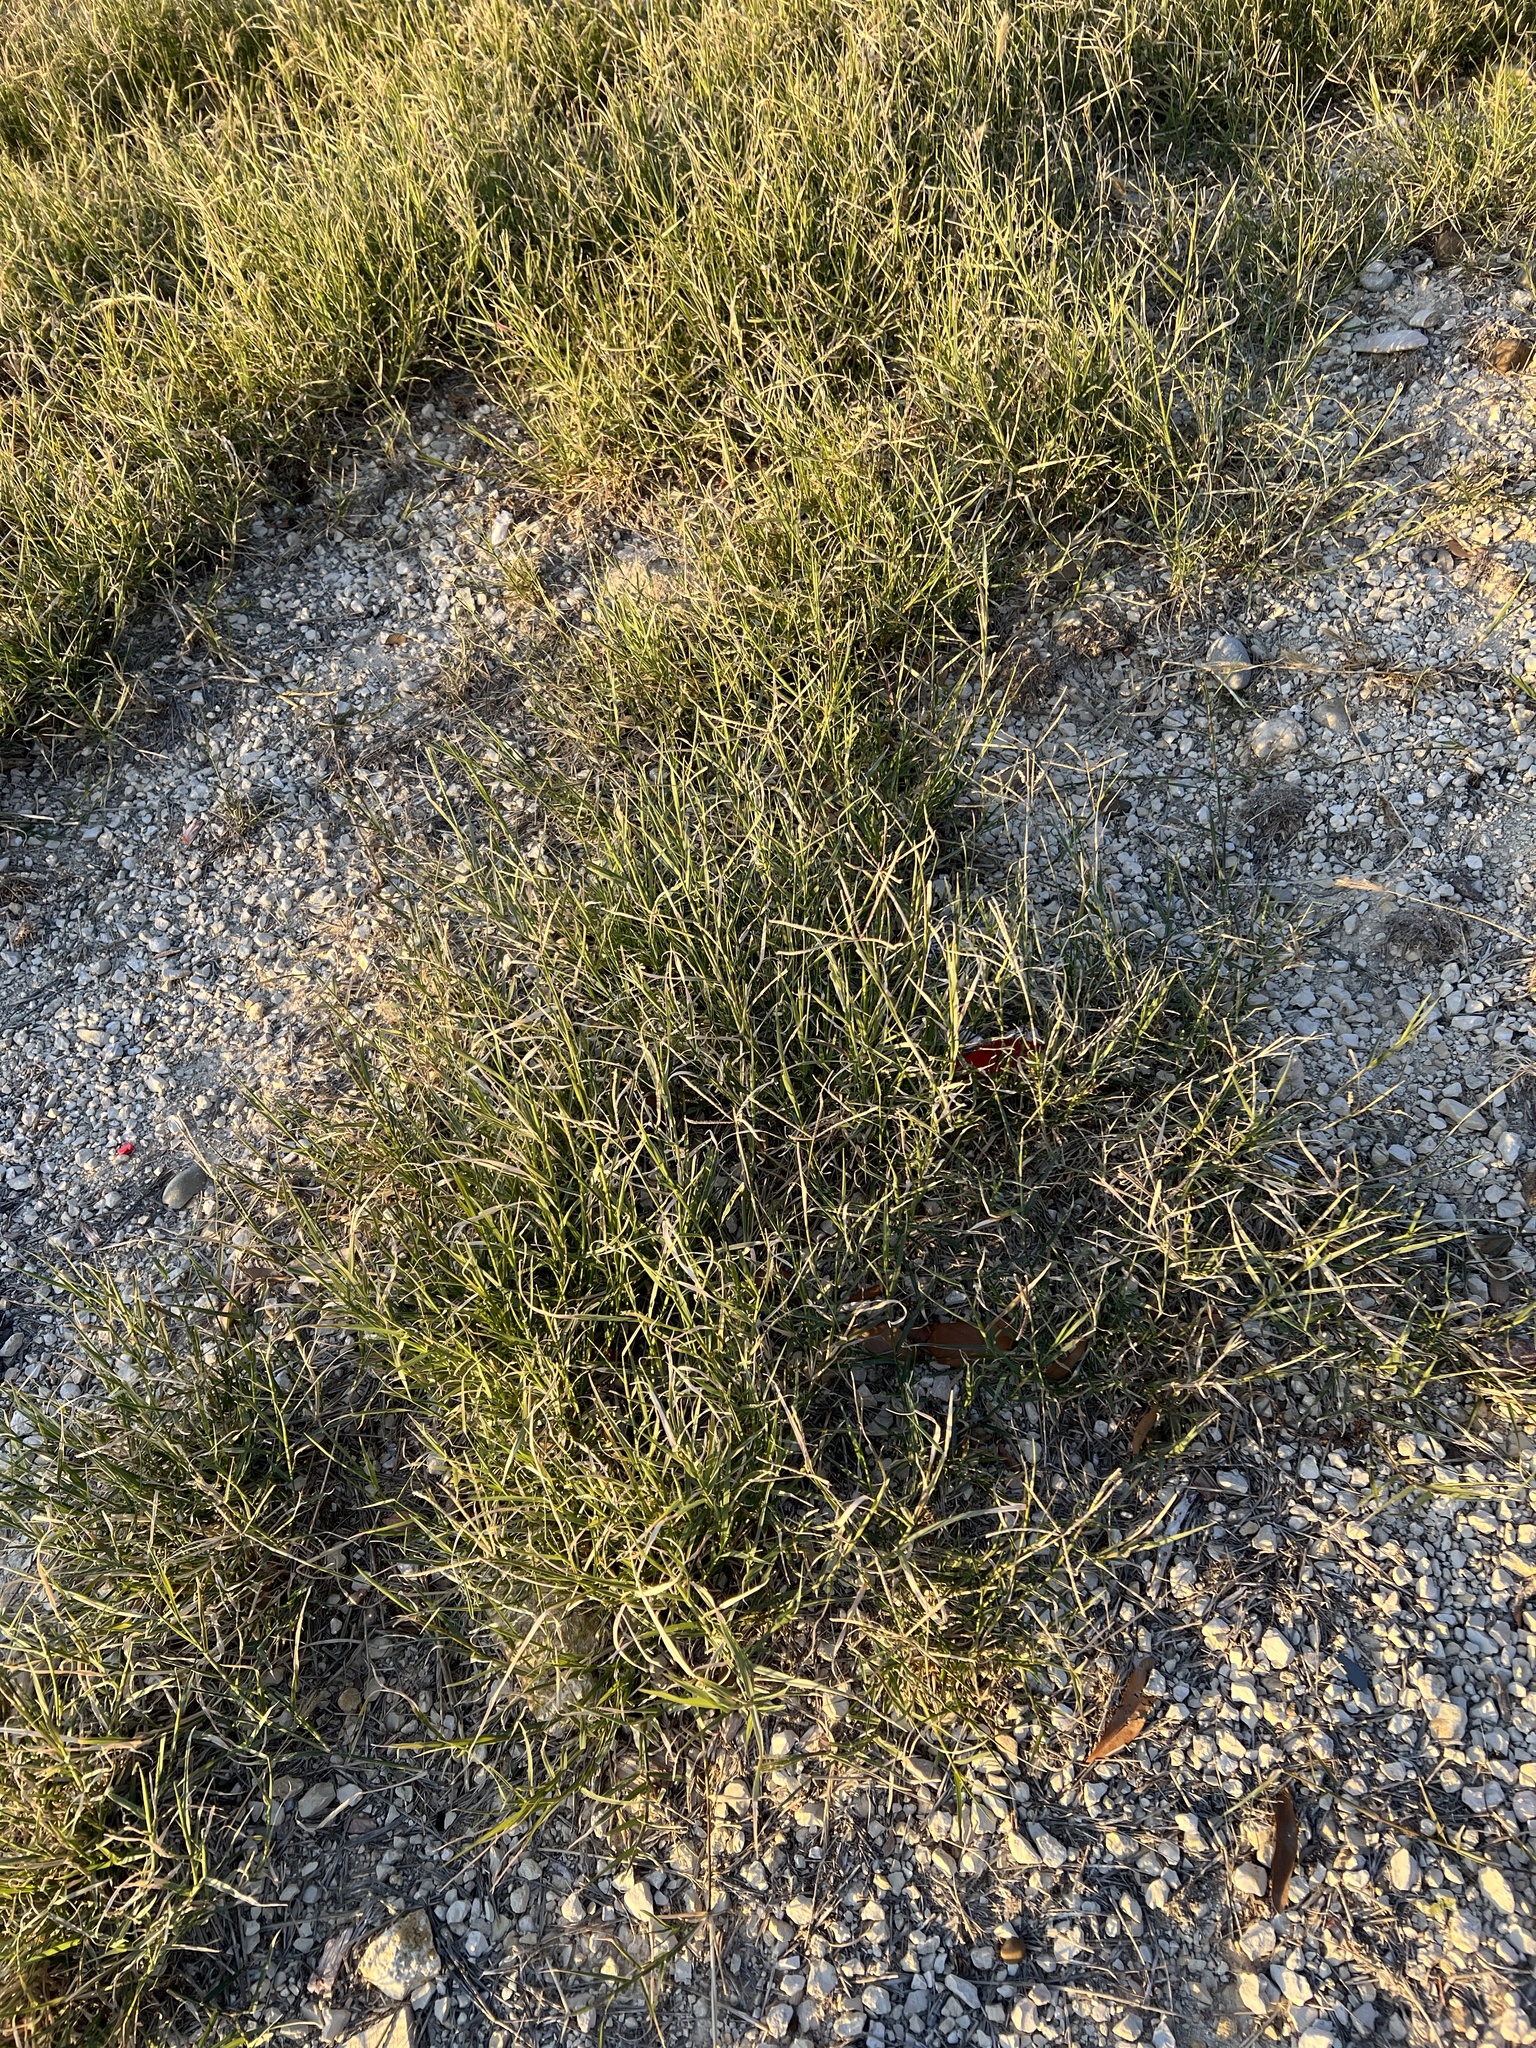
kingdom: Plantae
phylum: Tracheophyta
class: Liliopsida
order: Poales
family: Poaceae
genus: Cynodon
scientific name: Cynodon dactylon
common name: Bermuda grass
